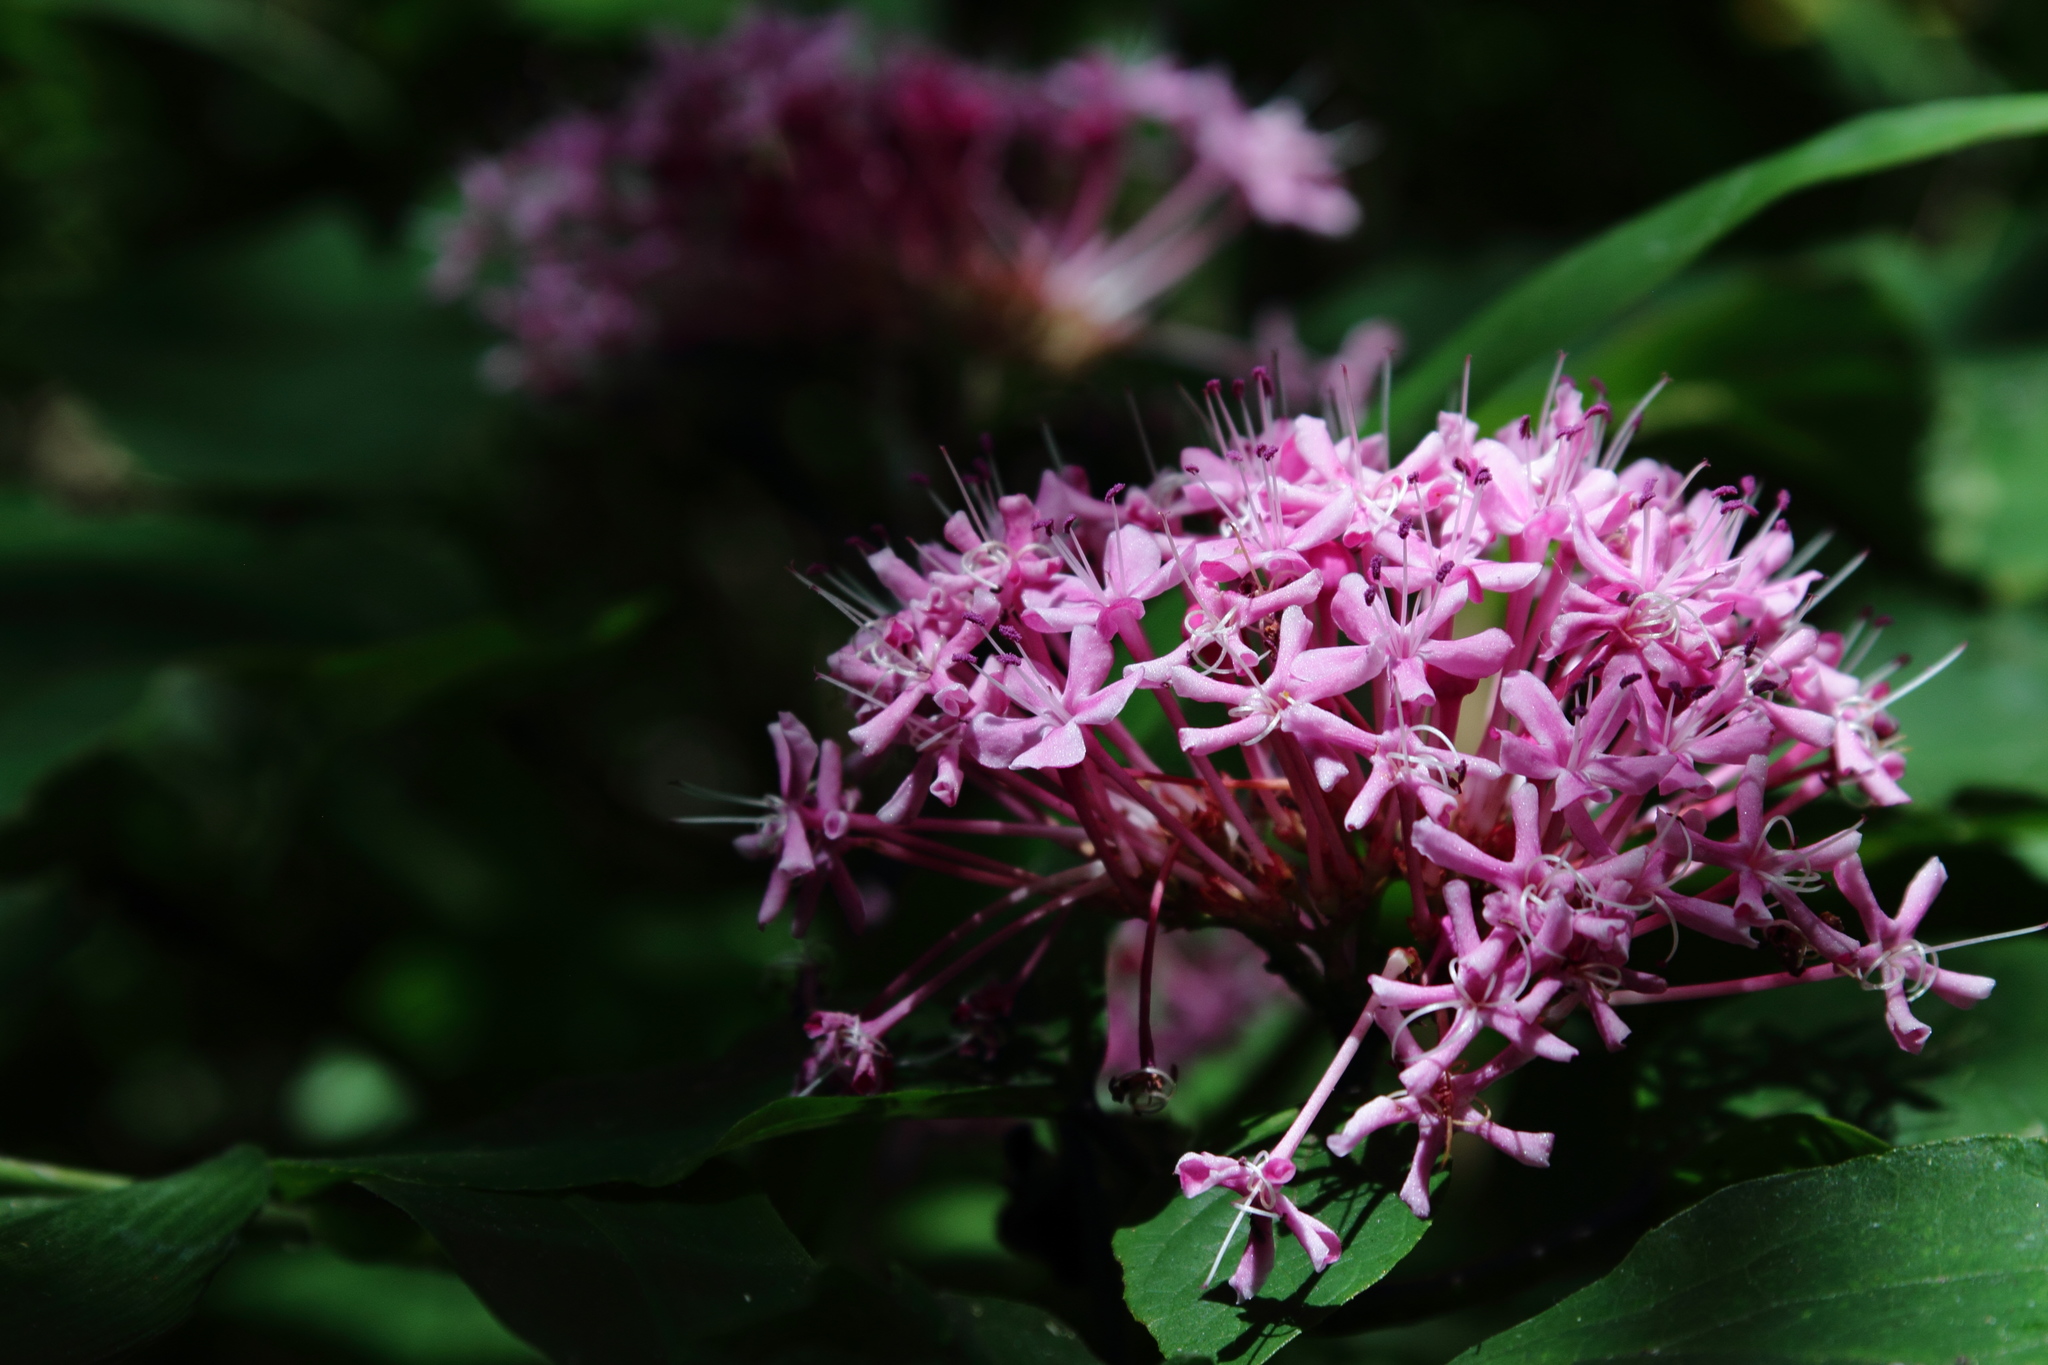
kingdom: Plantae
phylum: Tracheophyta
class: Magnoliopsida
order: Lamiales
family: Lamiaceae
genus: Clerodendrum
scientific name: Clerodendrum bungei
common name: Rose glorybower
